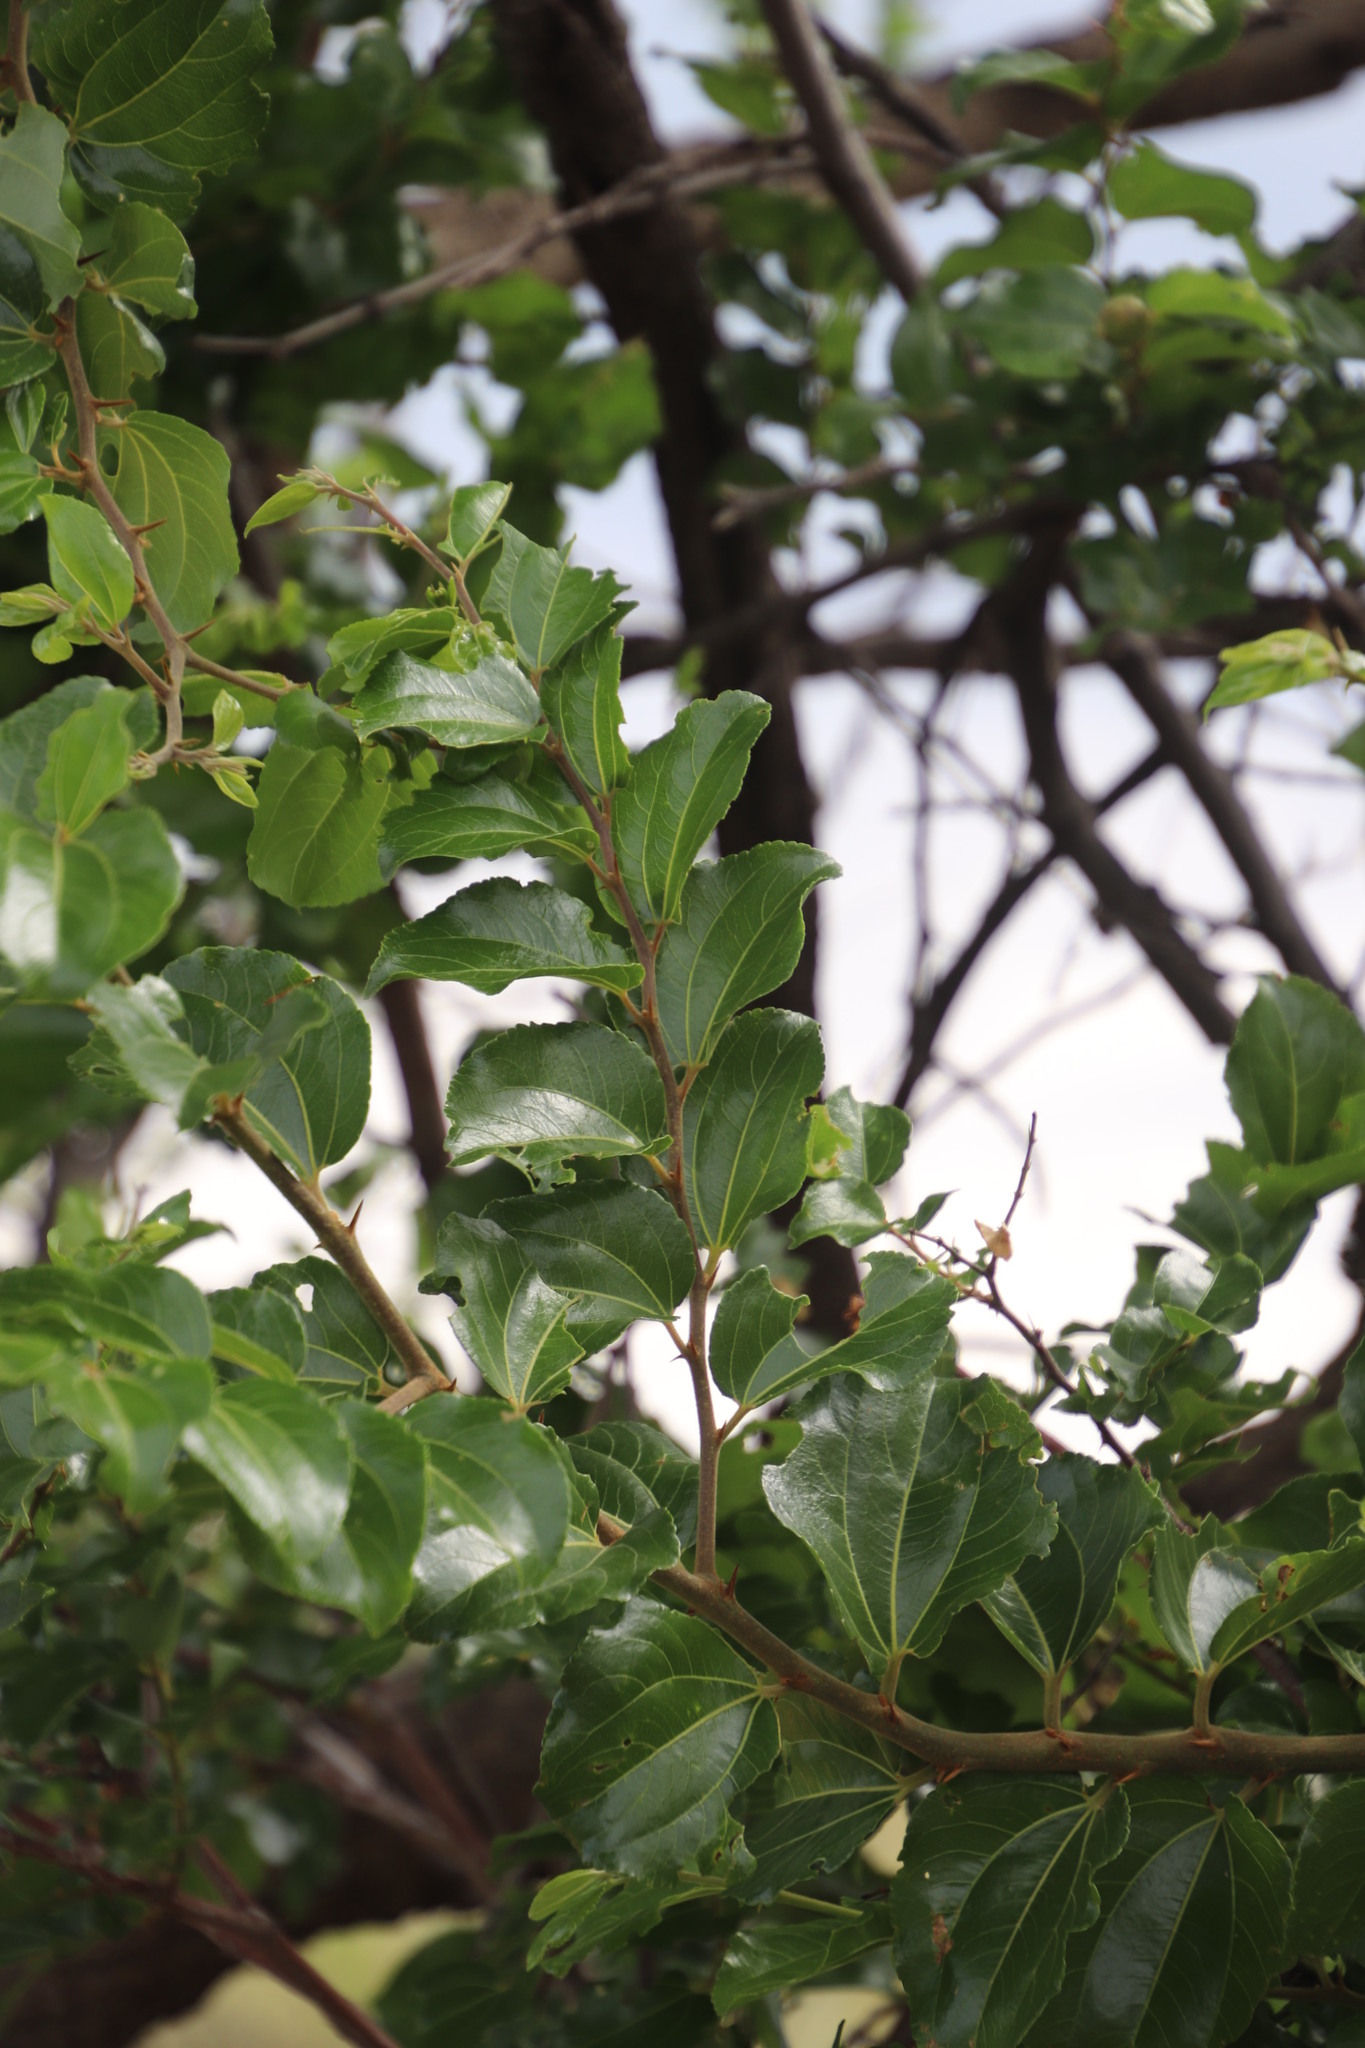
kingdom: Plantae
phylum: Tracheophyta
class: Magnoliopsida
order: Rosales
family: Rhamnaceae
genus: Ziziphus
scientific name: Ziziphus mucronata
